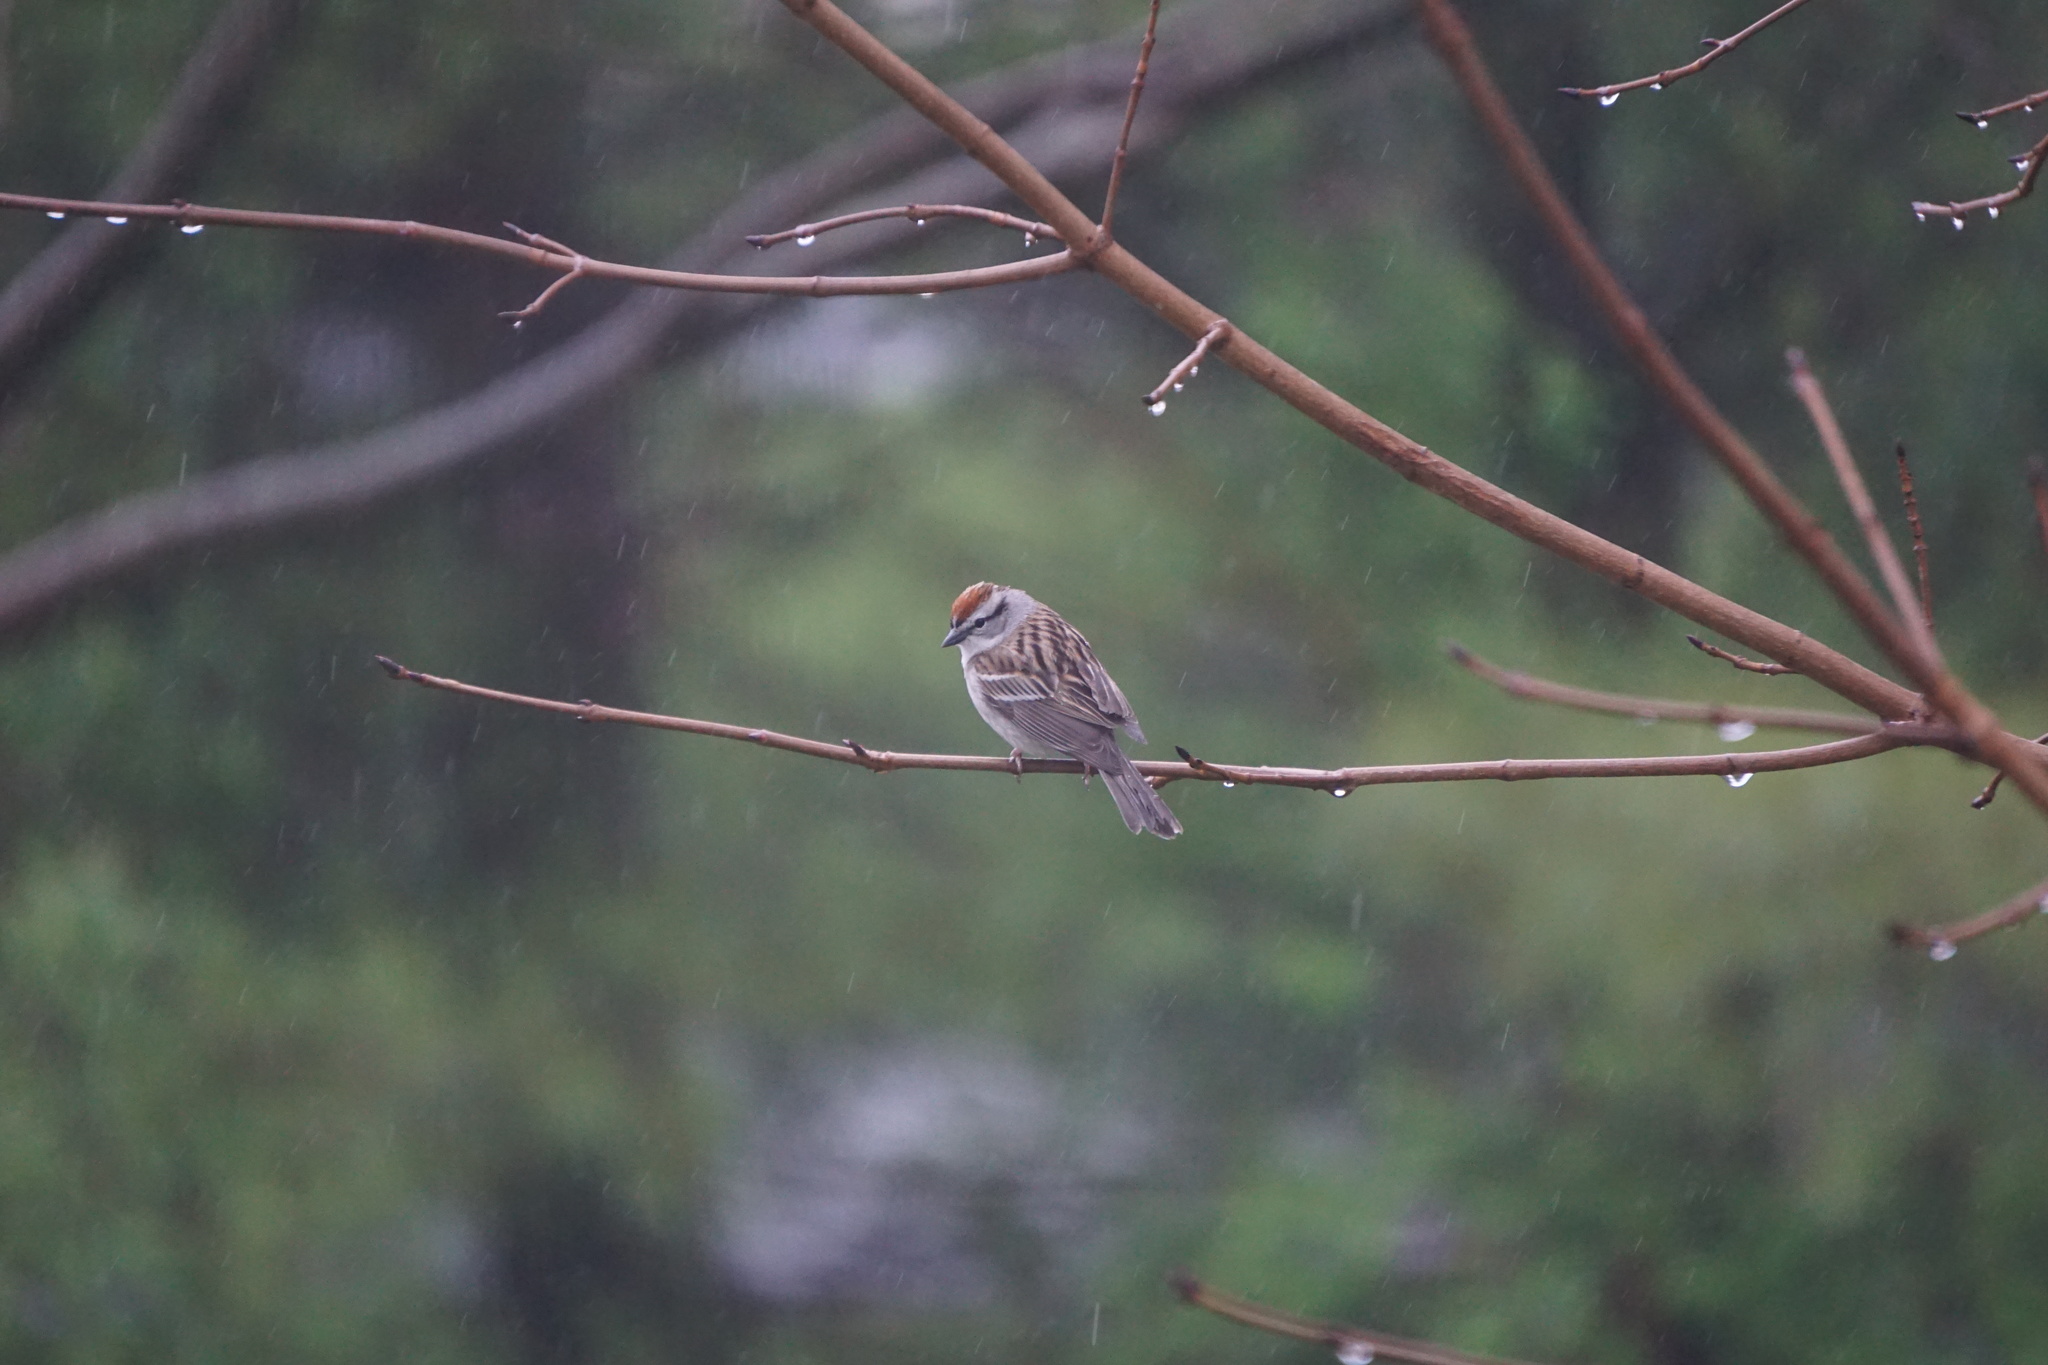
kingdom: Animalia
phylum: Chordata
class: Aves
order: Passeriformes
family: Passerellidae
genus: Spizella
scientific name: Spizella passerina
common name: Chipping sparrow
